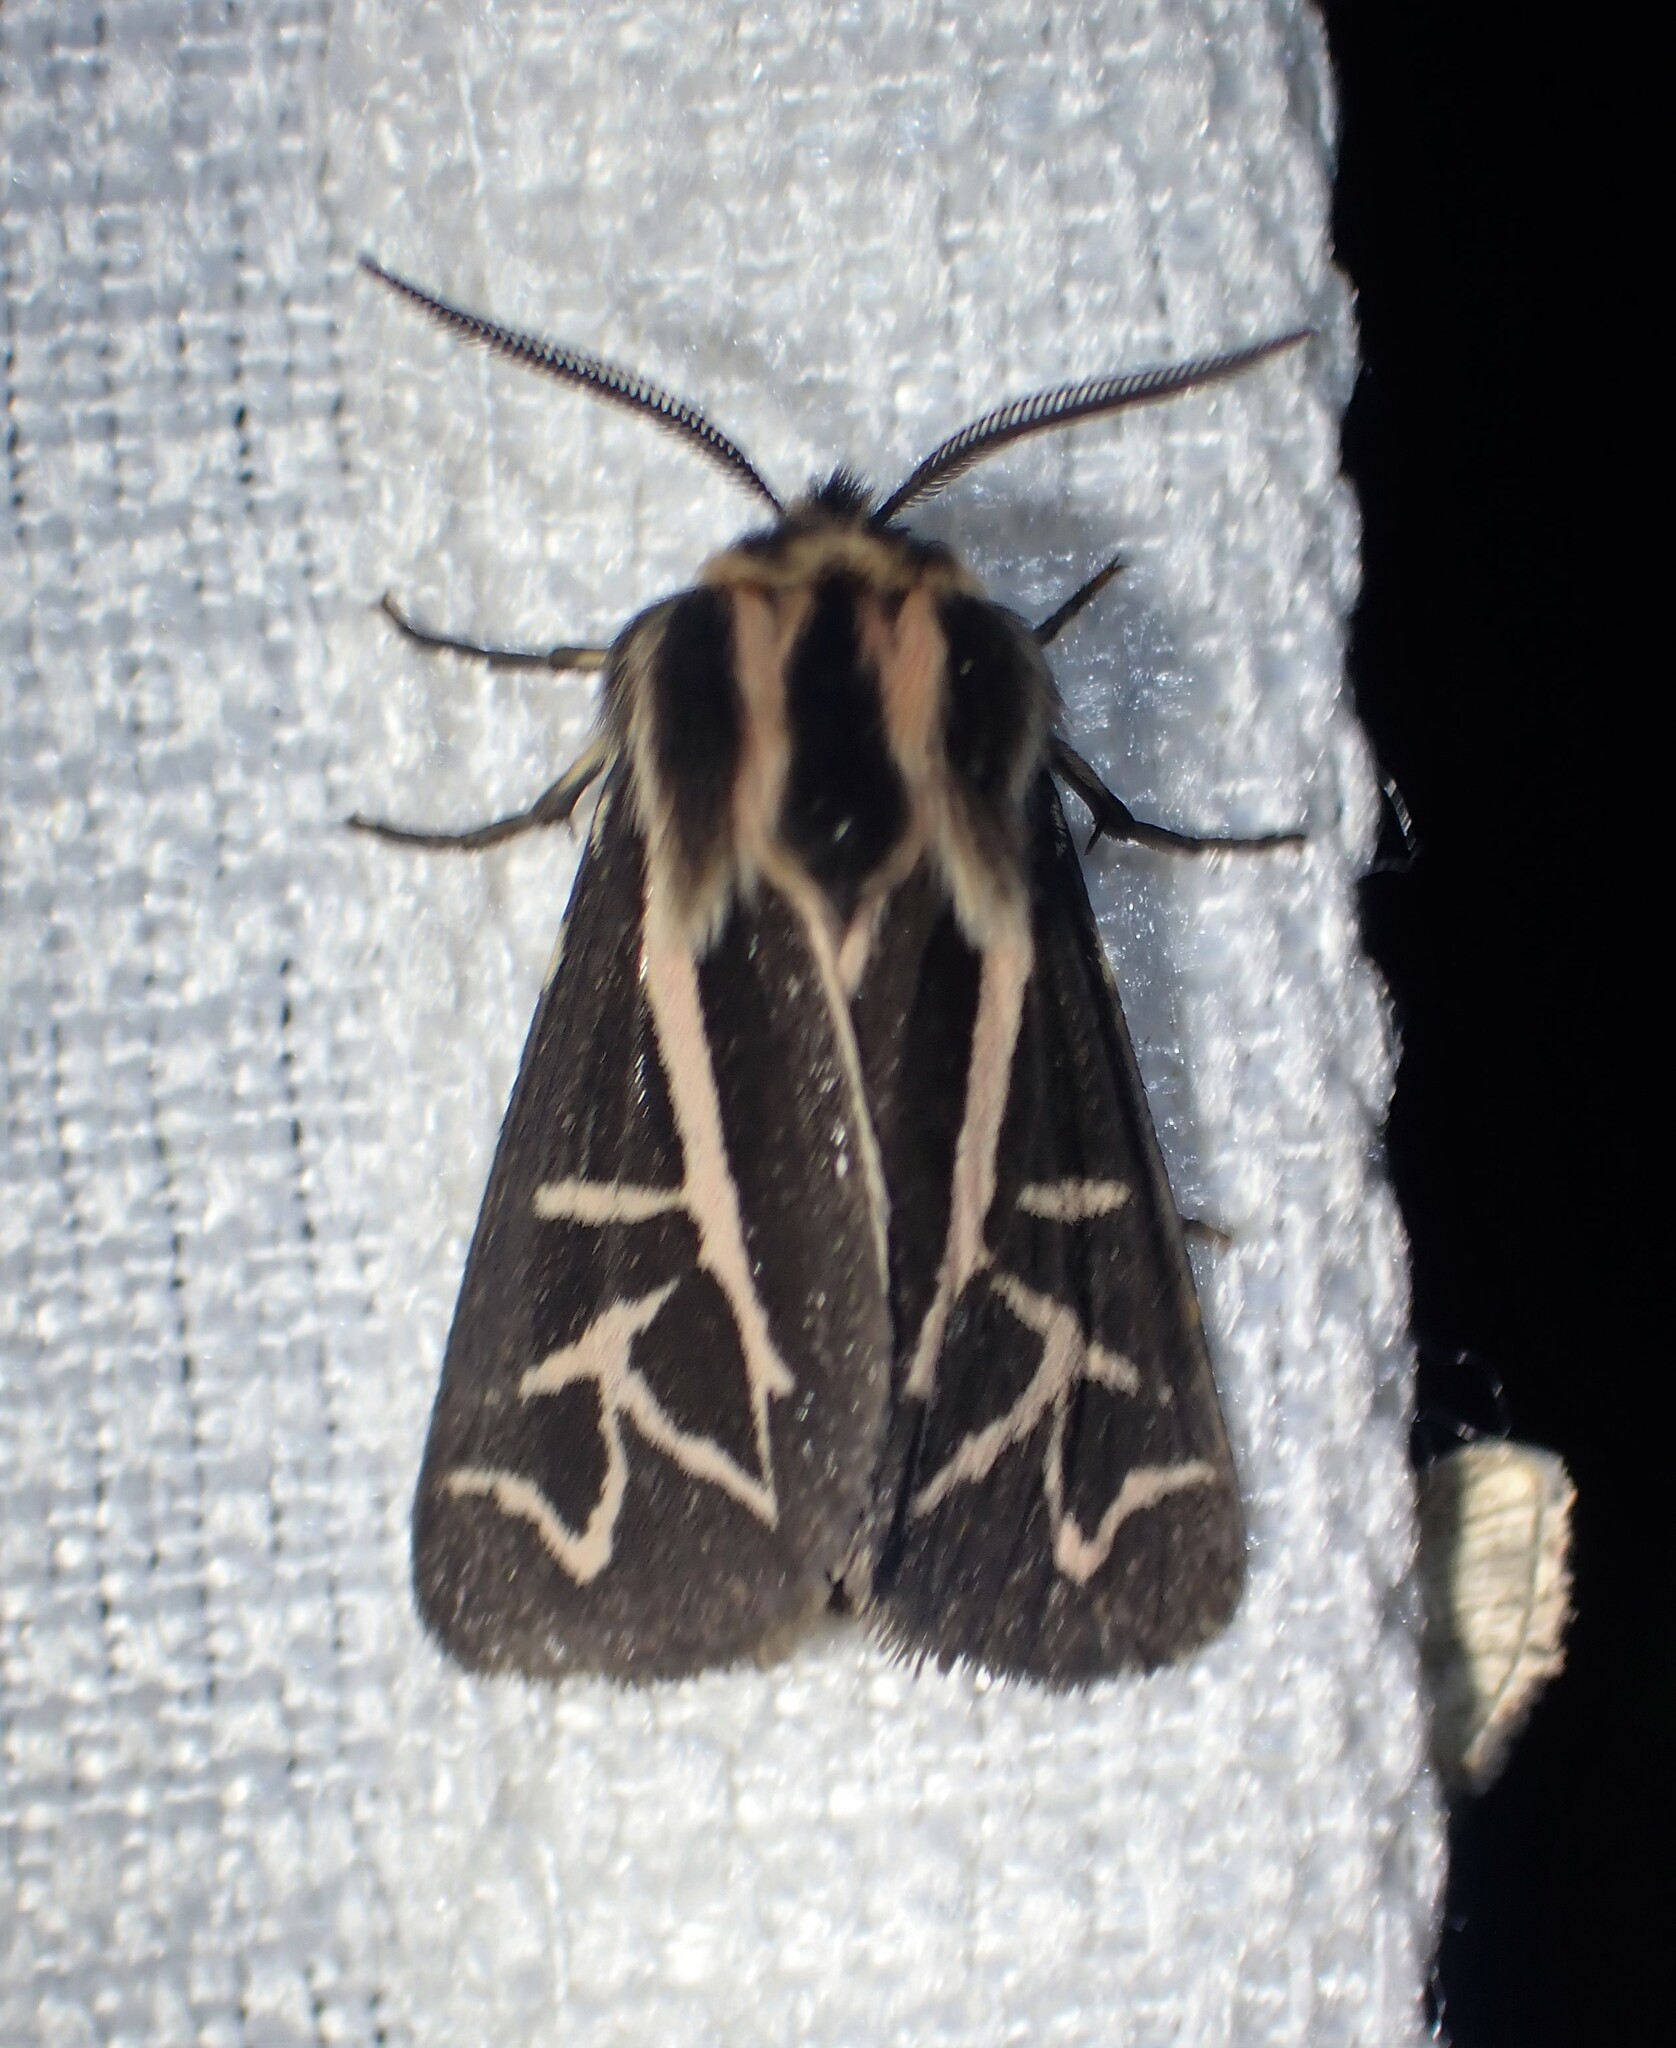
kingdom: Animalia
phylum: Arthropoda
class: Insecta
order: Lepidoptera
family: Erebidae
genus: Apantesis
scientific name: Apantesis
